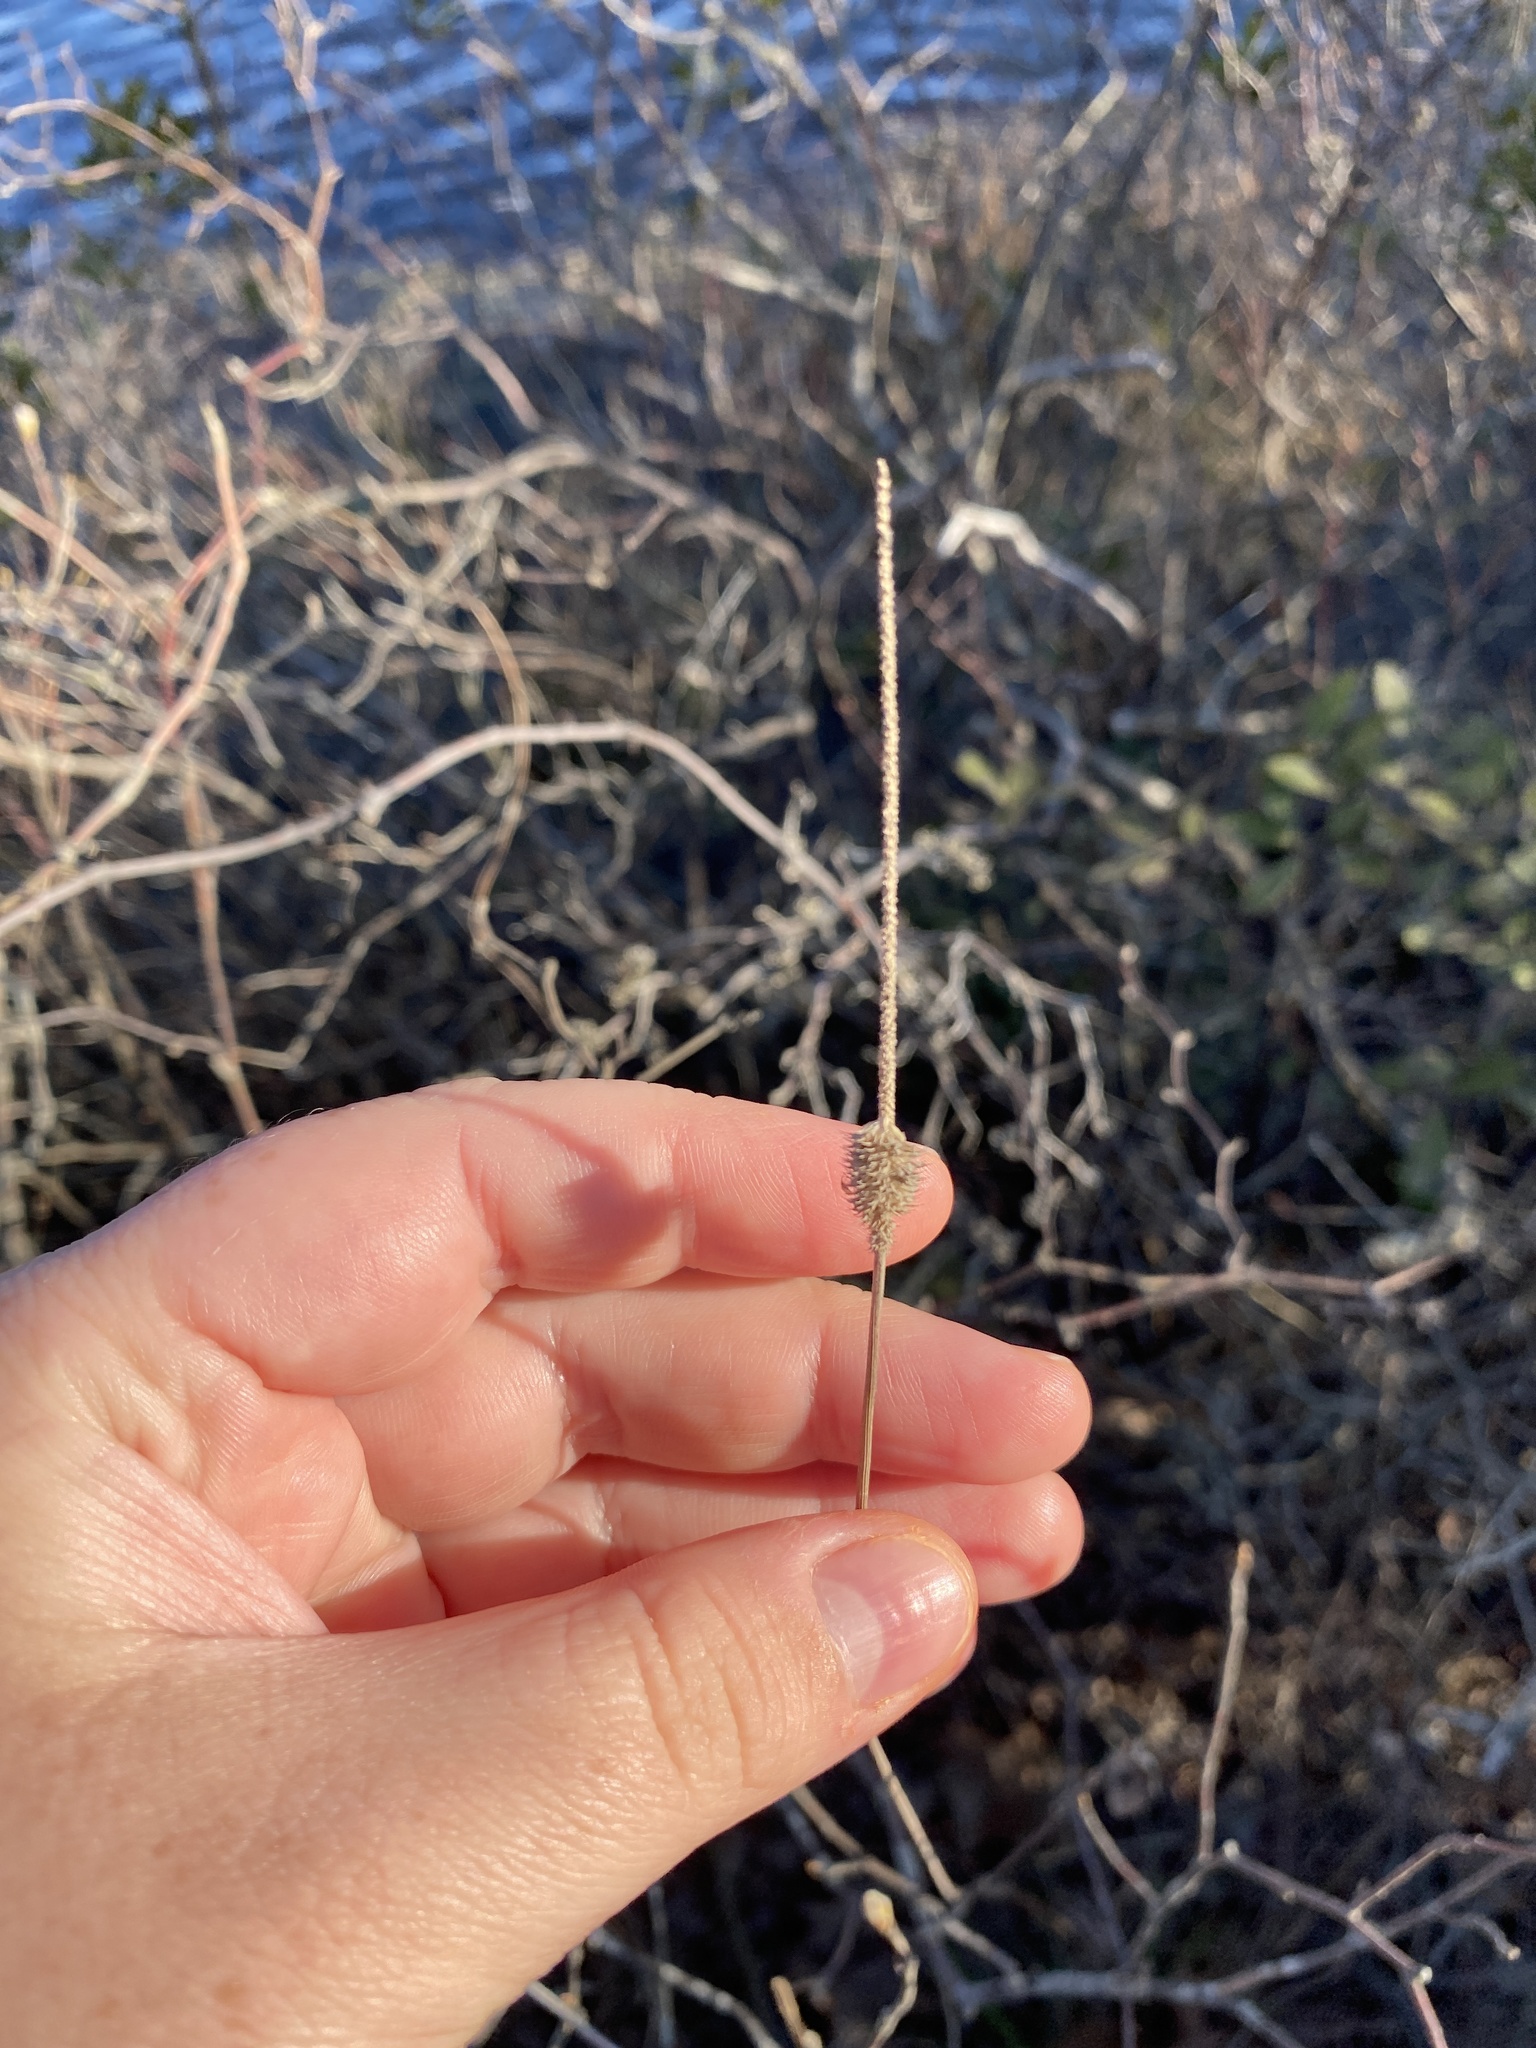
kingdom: Plantae
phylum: Tracheophyta
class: Liliopsida
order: Poales
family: Poaceae
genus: Phleum
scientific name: Phleum pratense
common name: Timothy grass
